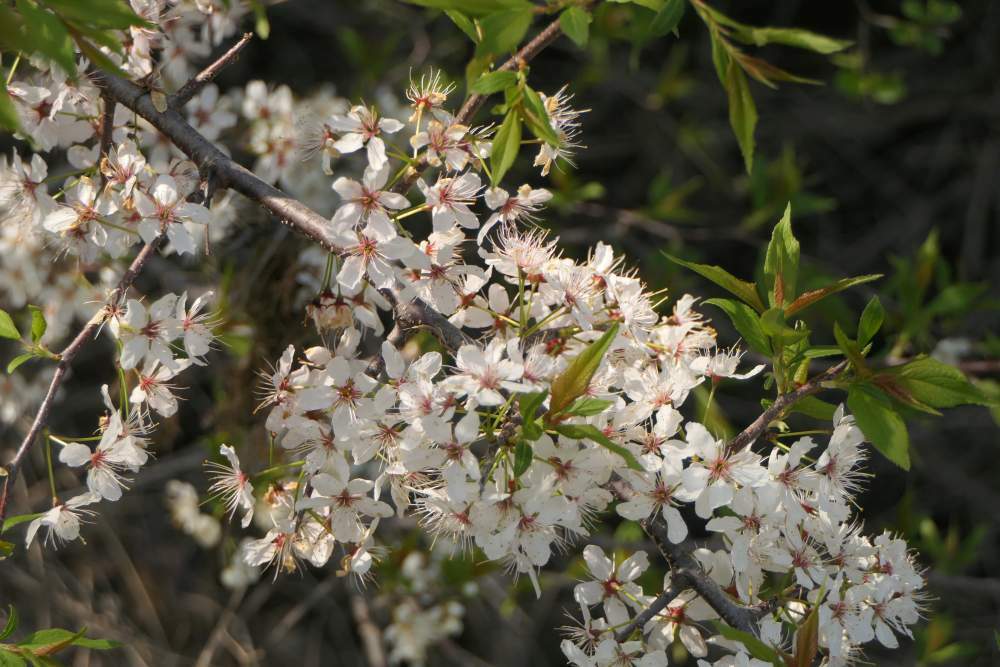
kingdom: Plantae
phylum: Tracheophyta
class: Magnoliopsida
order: Rosales
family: Rosaceae
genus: Prunus
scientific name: Prunus nigra
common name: Black plum
